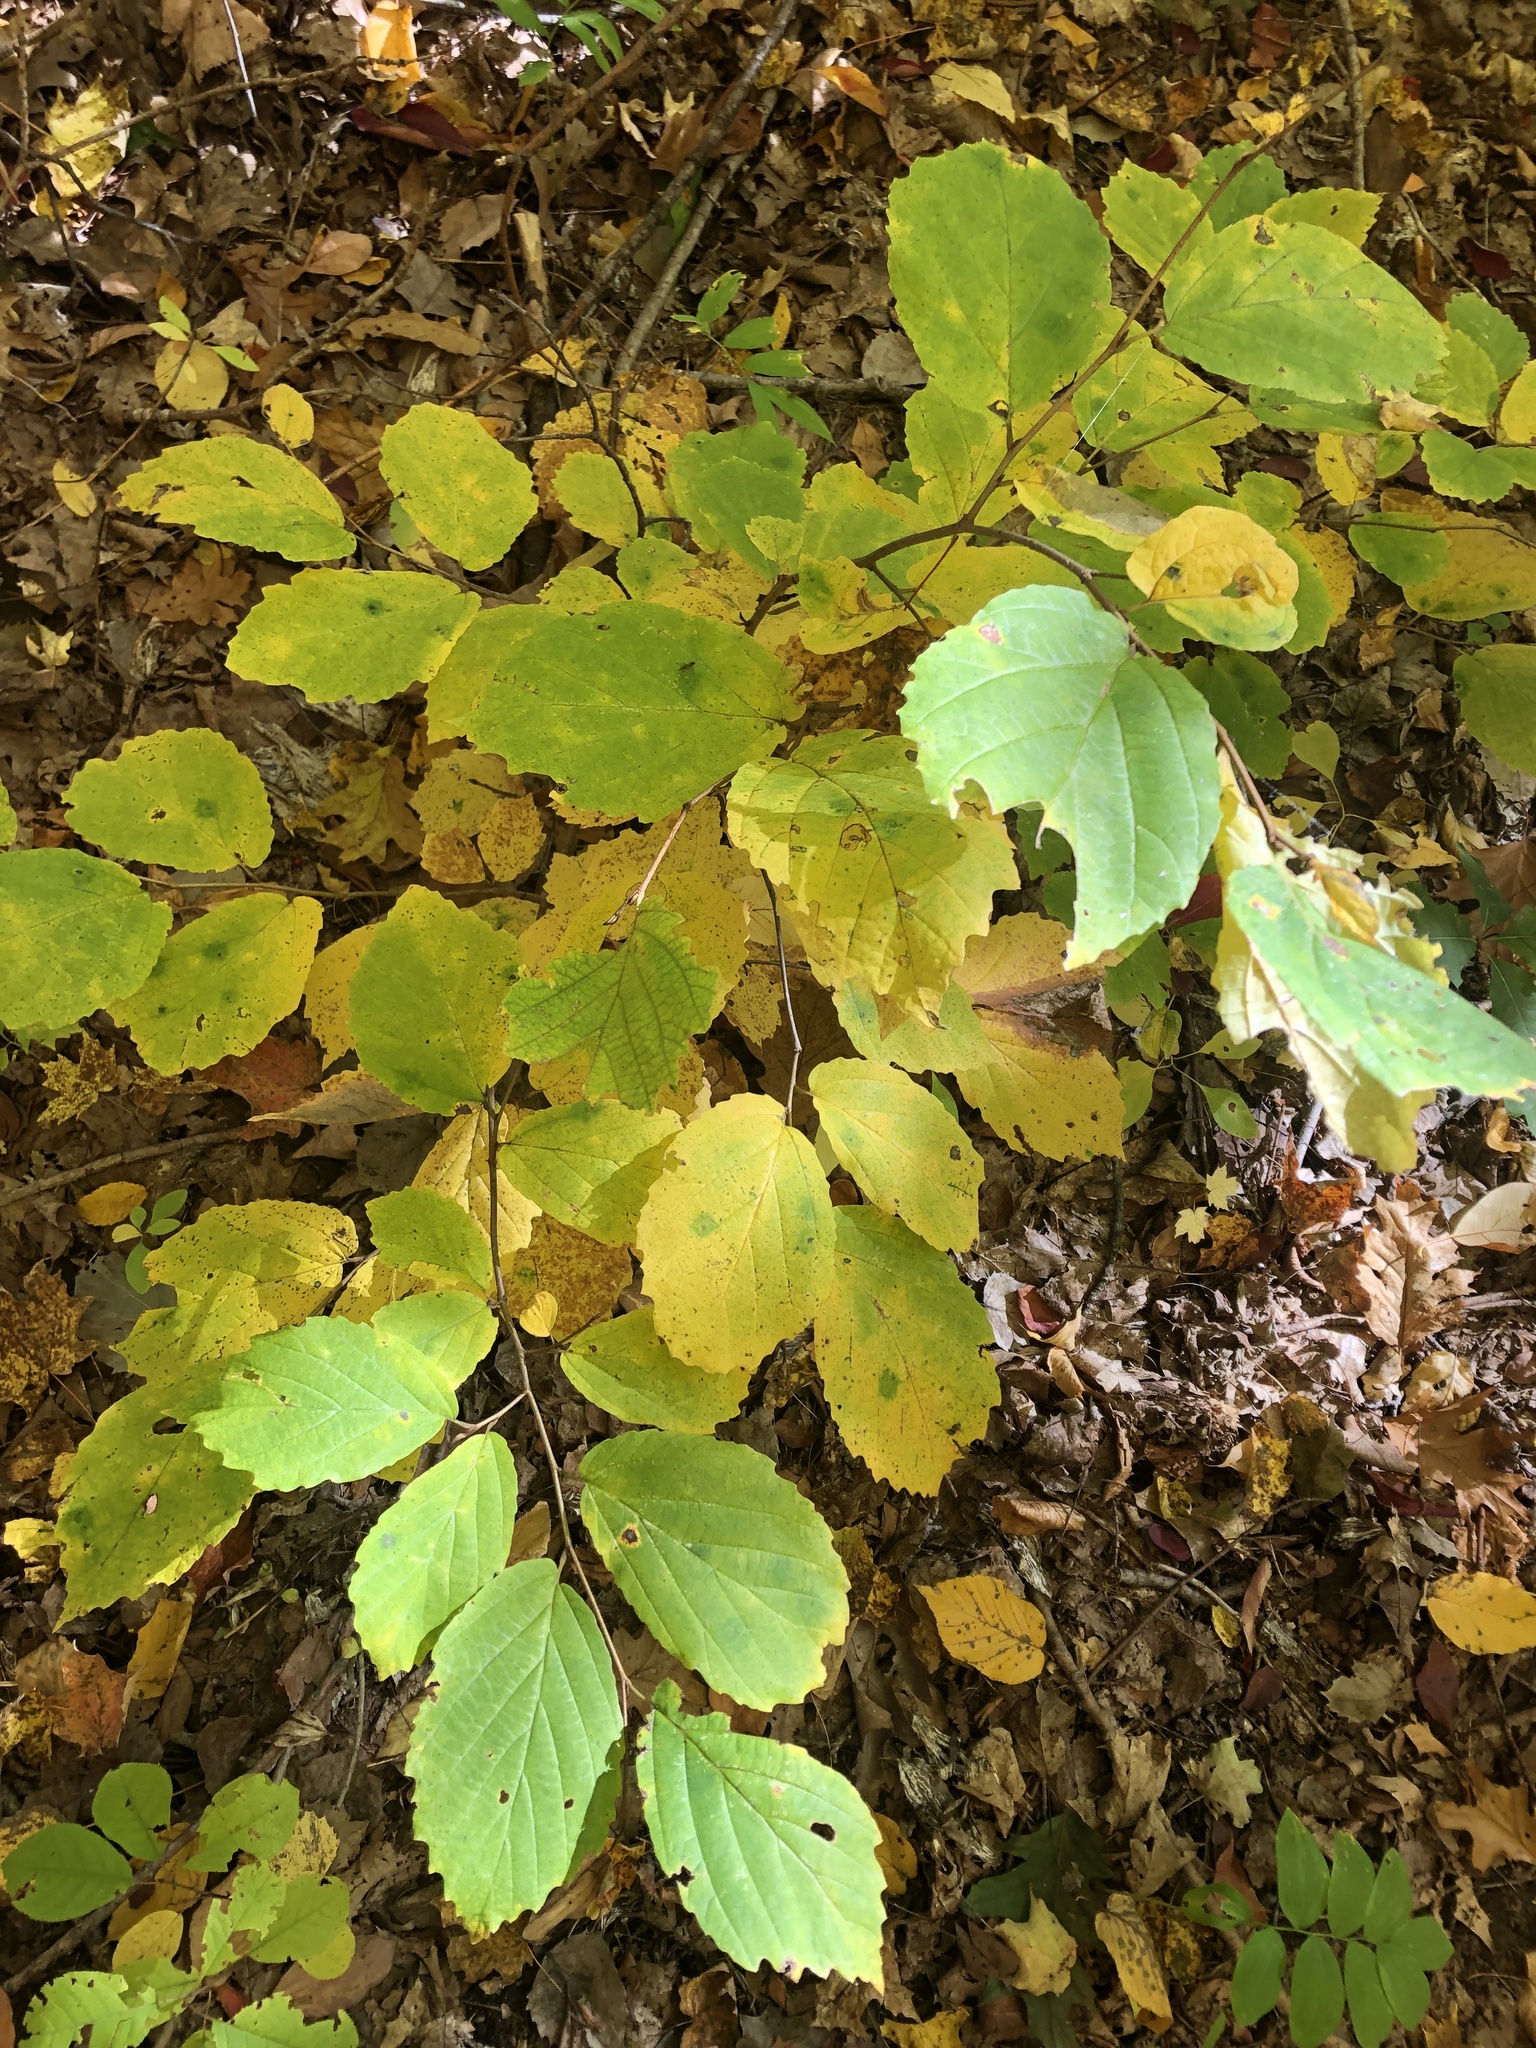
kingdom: Plantae
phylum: Tracheophyta
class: Magnoliopsida
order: Saxifragales
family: Hamamelidaceae
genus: Hamamelis
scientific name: Hamamelis virginiana
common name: Witch-hazel
